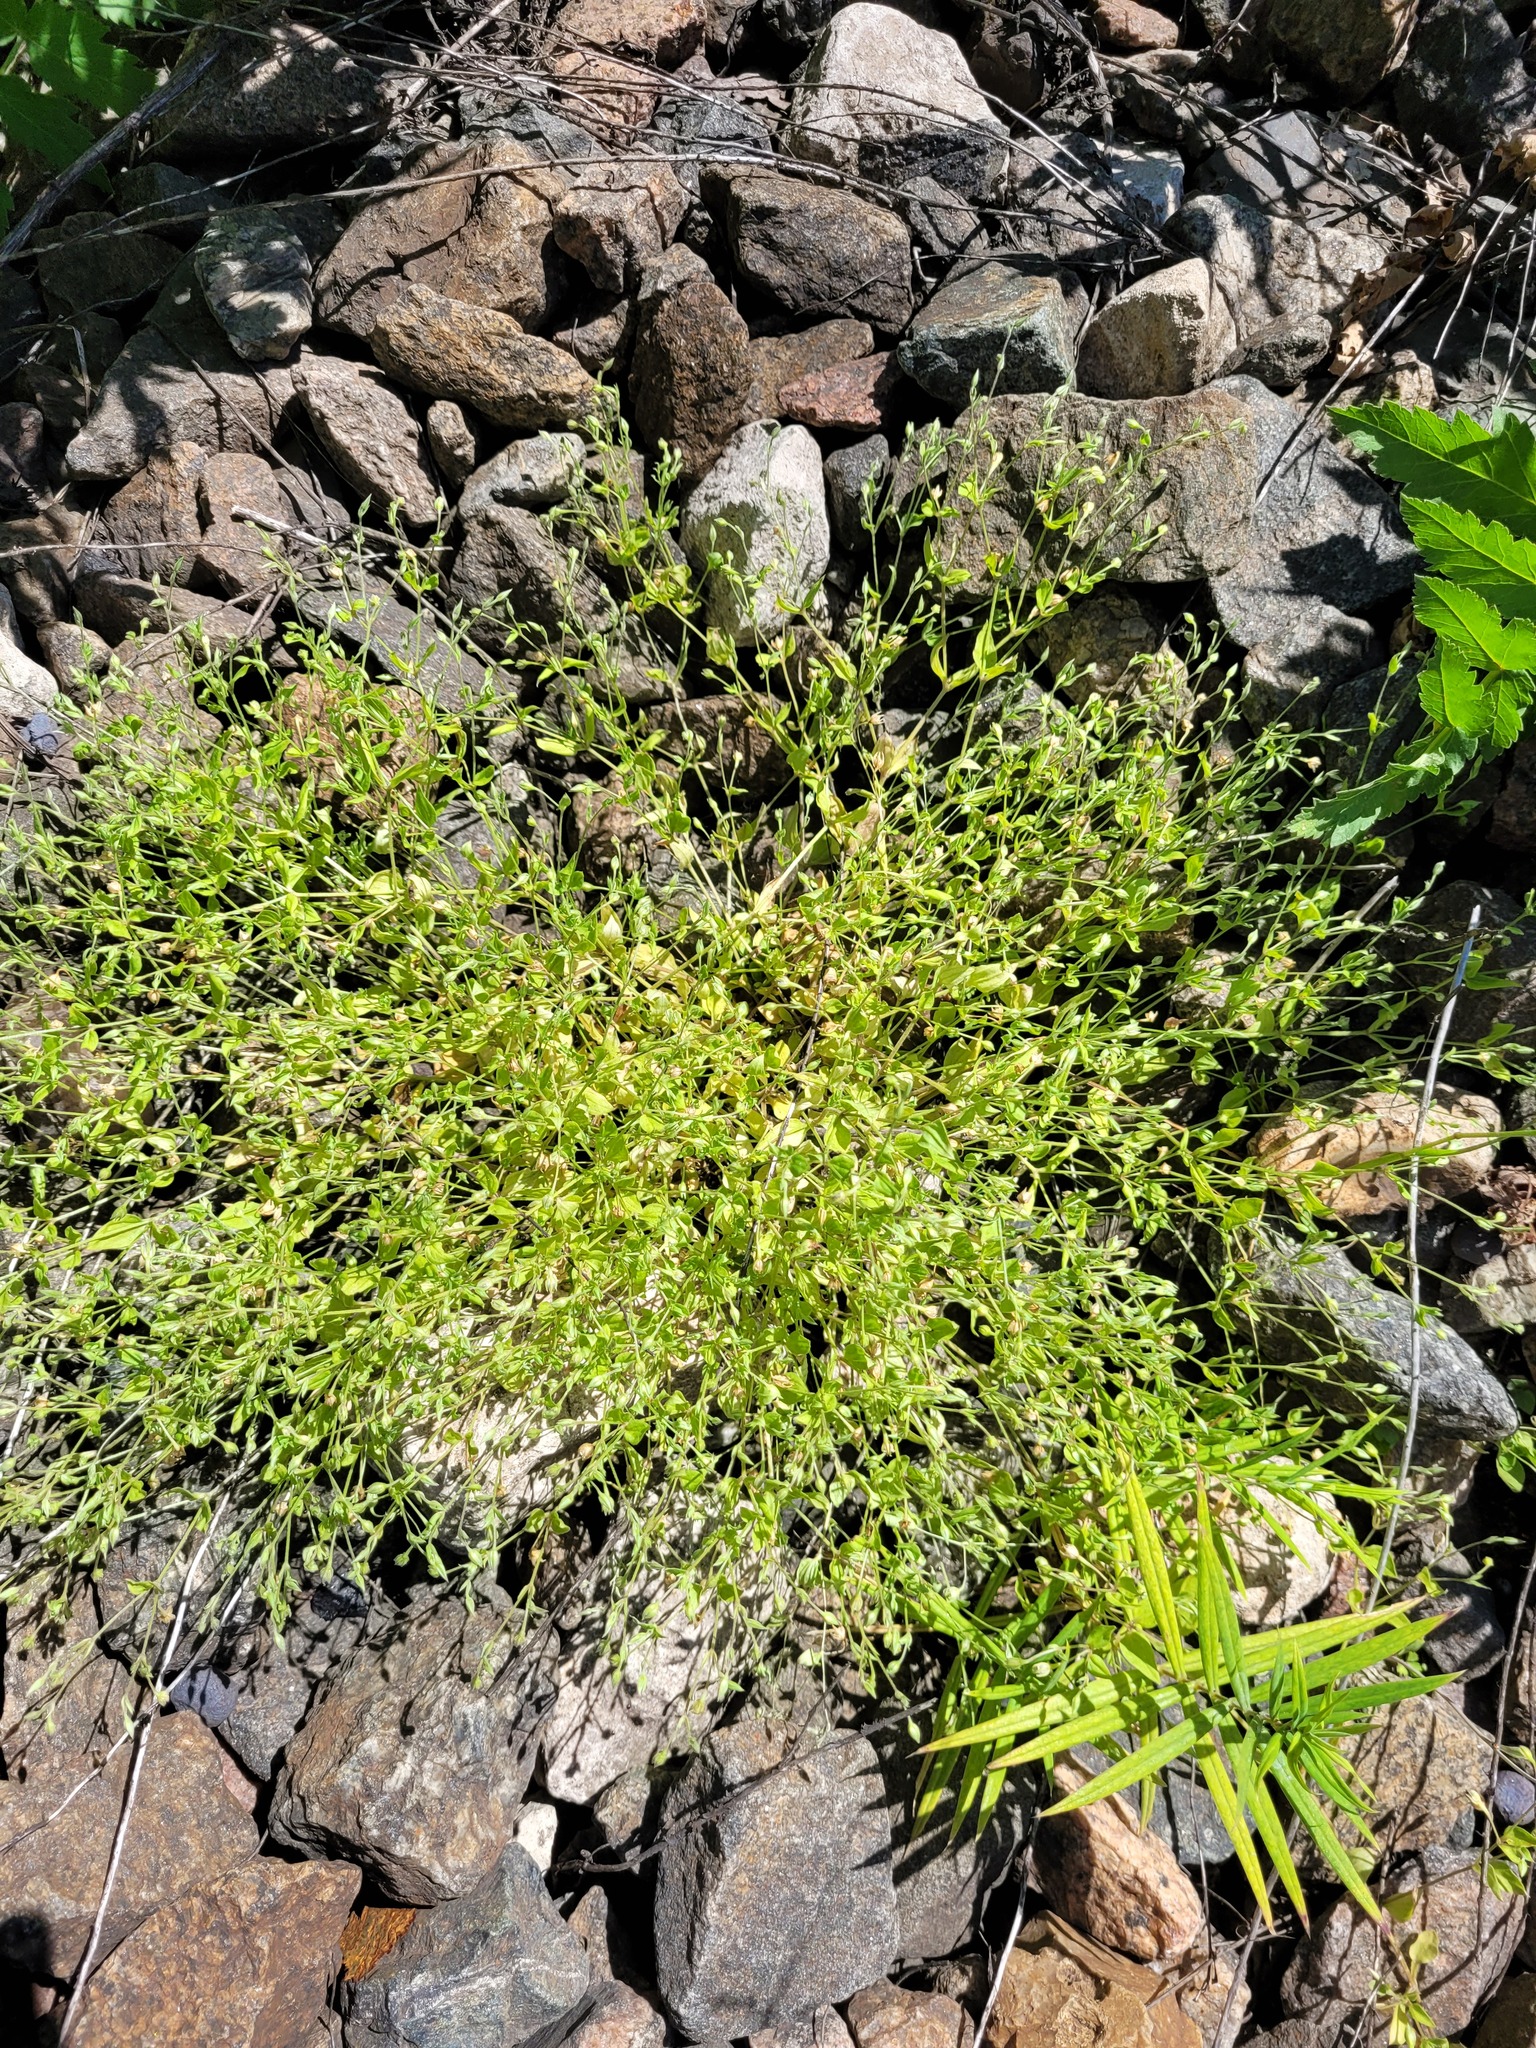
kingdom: Plantae
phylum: Tracheophyta
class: Magnoliopsida
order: Caryophyllales
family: Caryophyllaceae
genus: Moehringia
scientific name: Moehringia trinervia
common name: Three-nerved sandwort
